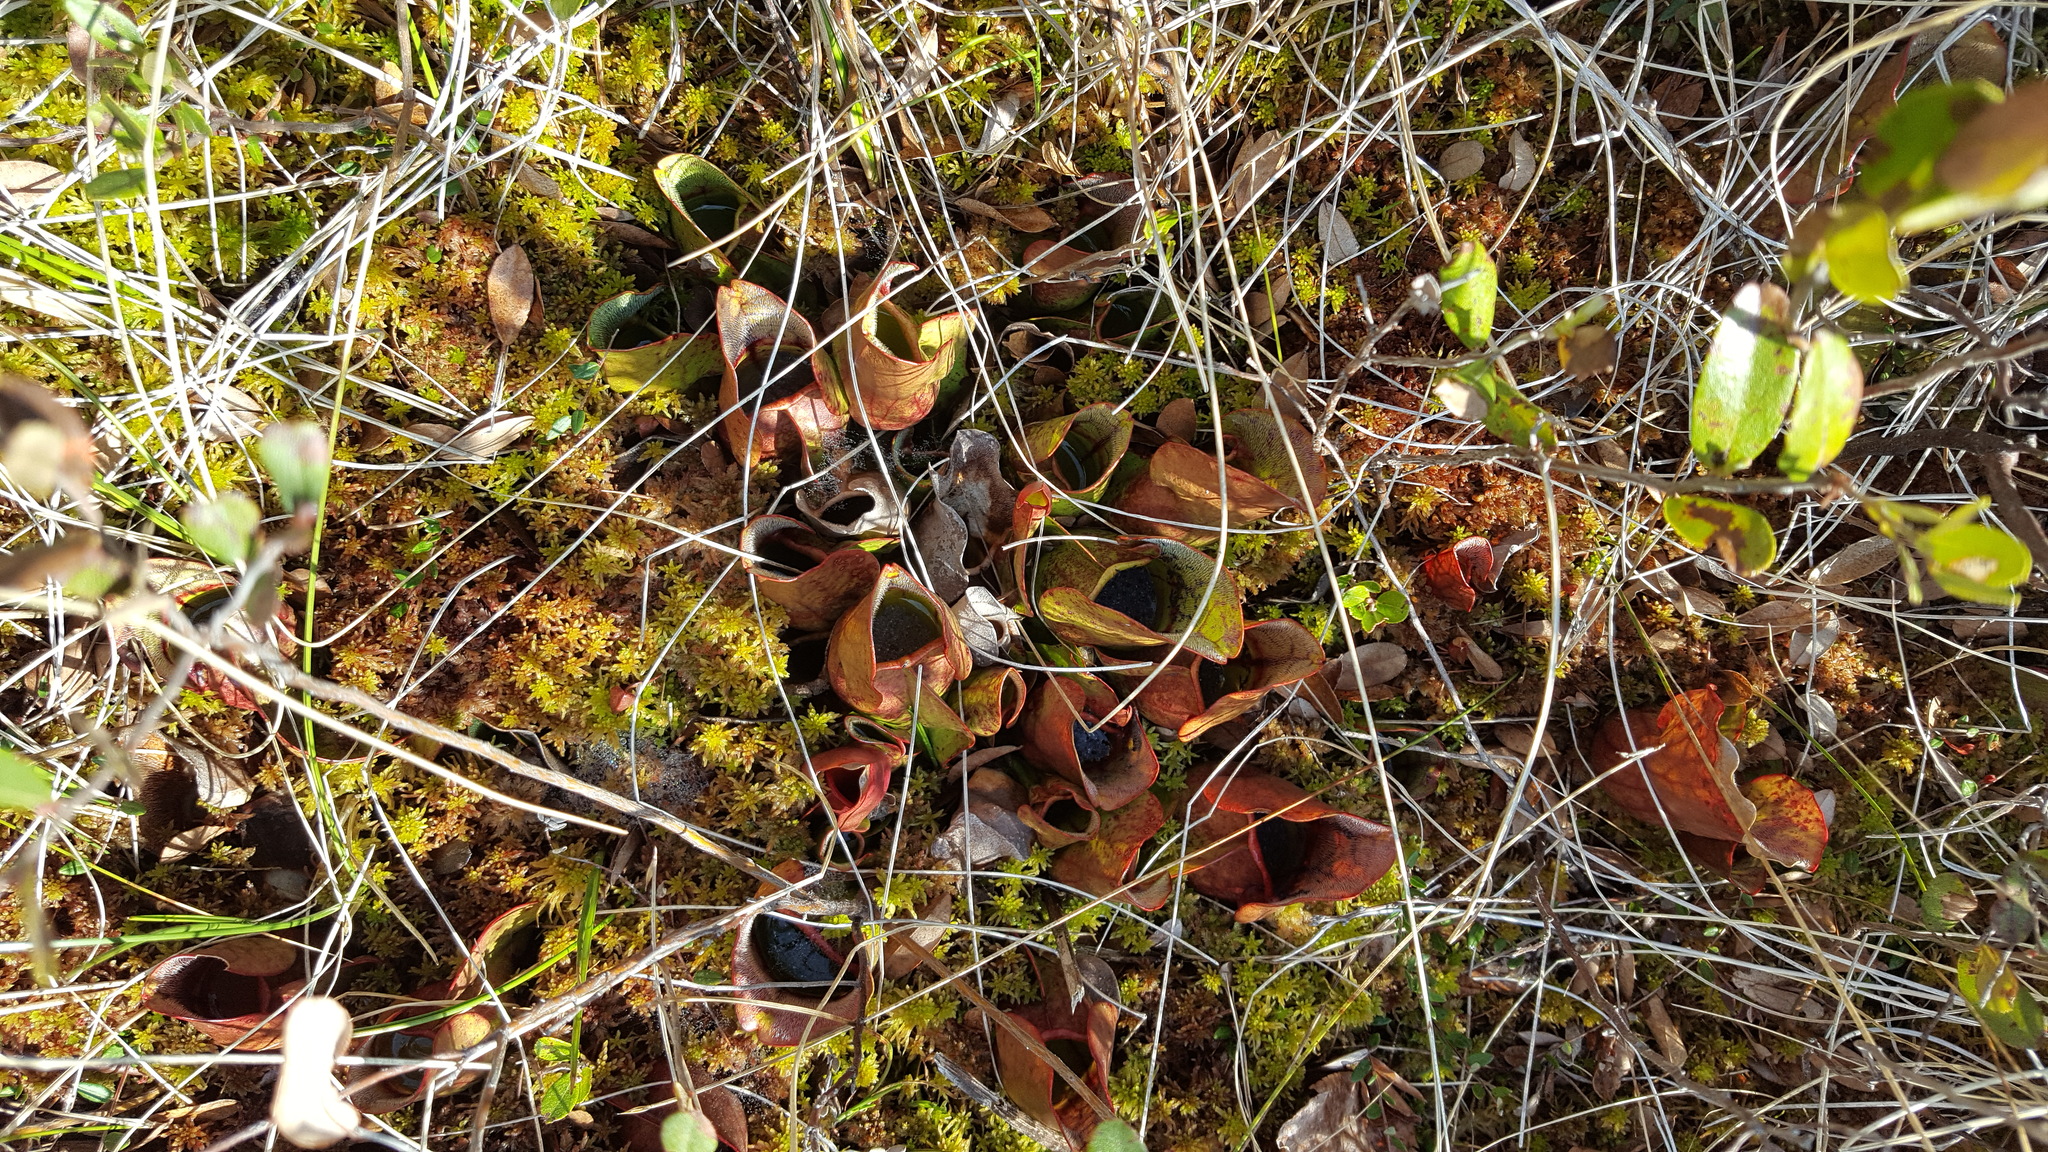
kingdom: Plantae
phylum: Tracheophyta
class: Magnoliopsida
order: Ericales
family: Sarraceniaceae
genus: Sarracenia
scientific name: Sarracenia purpurea
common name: Pitcherplant
